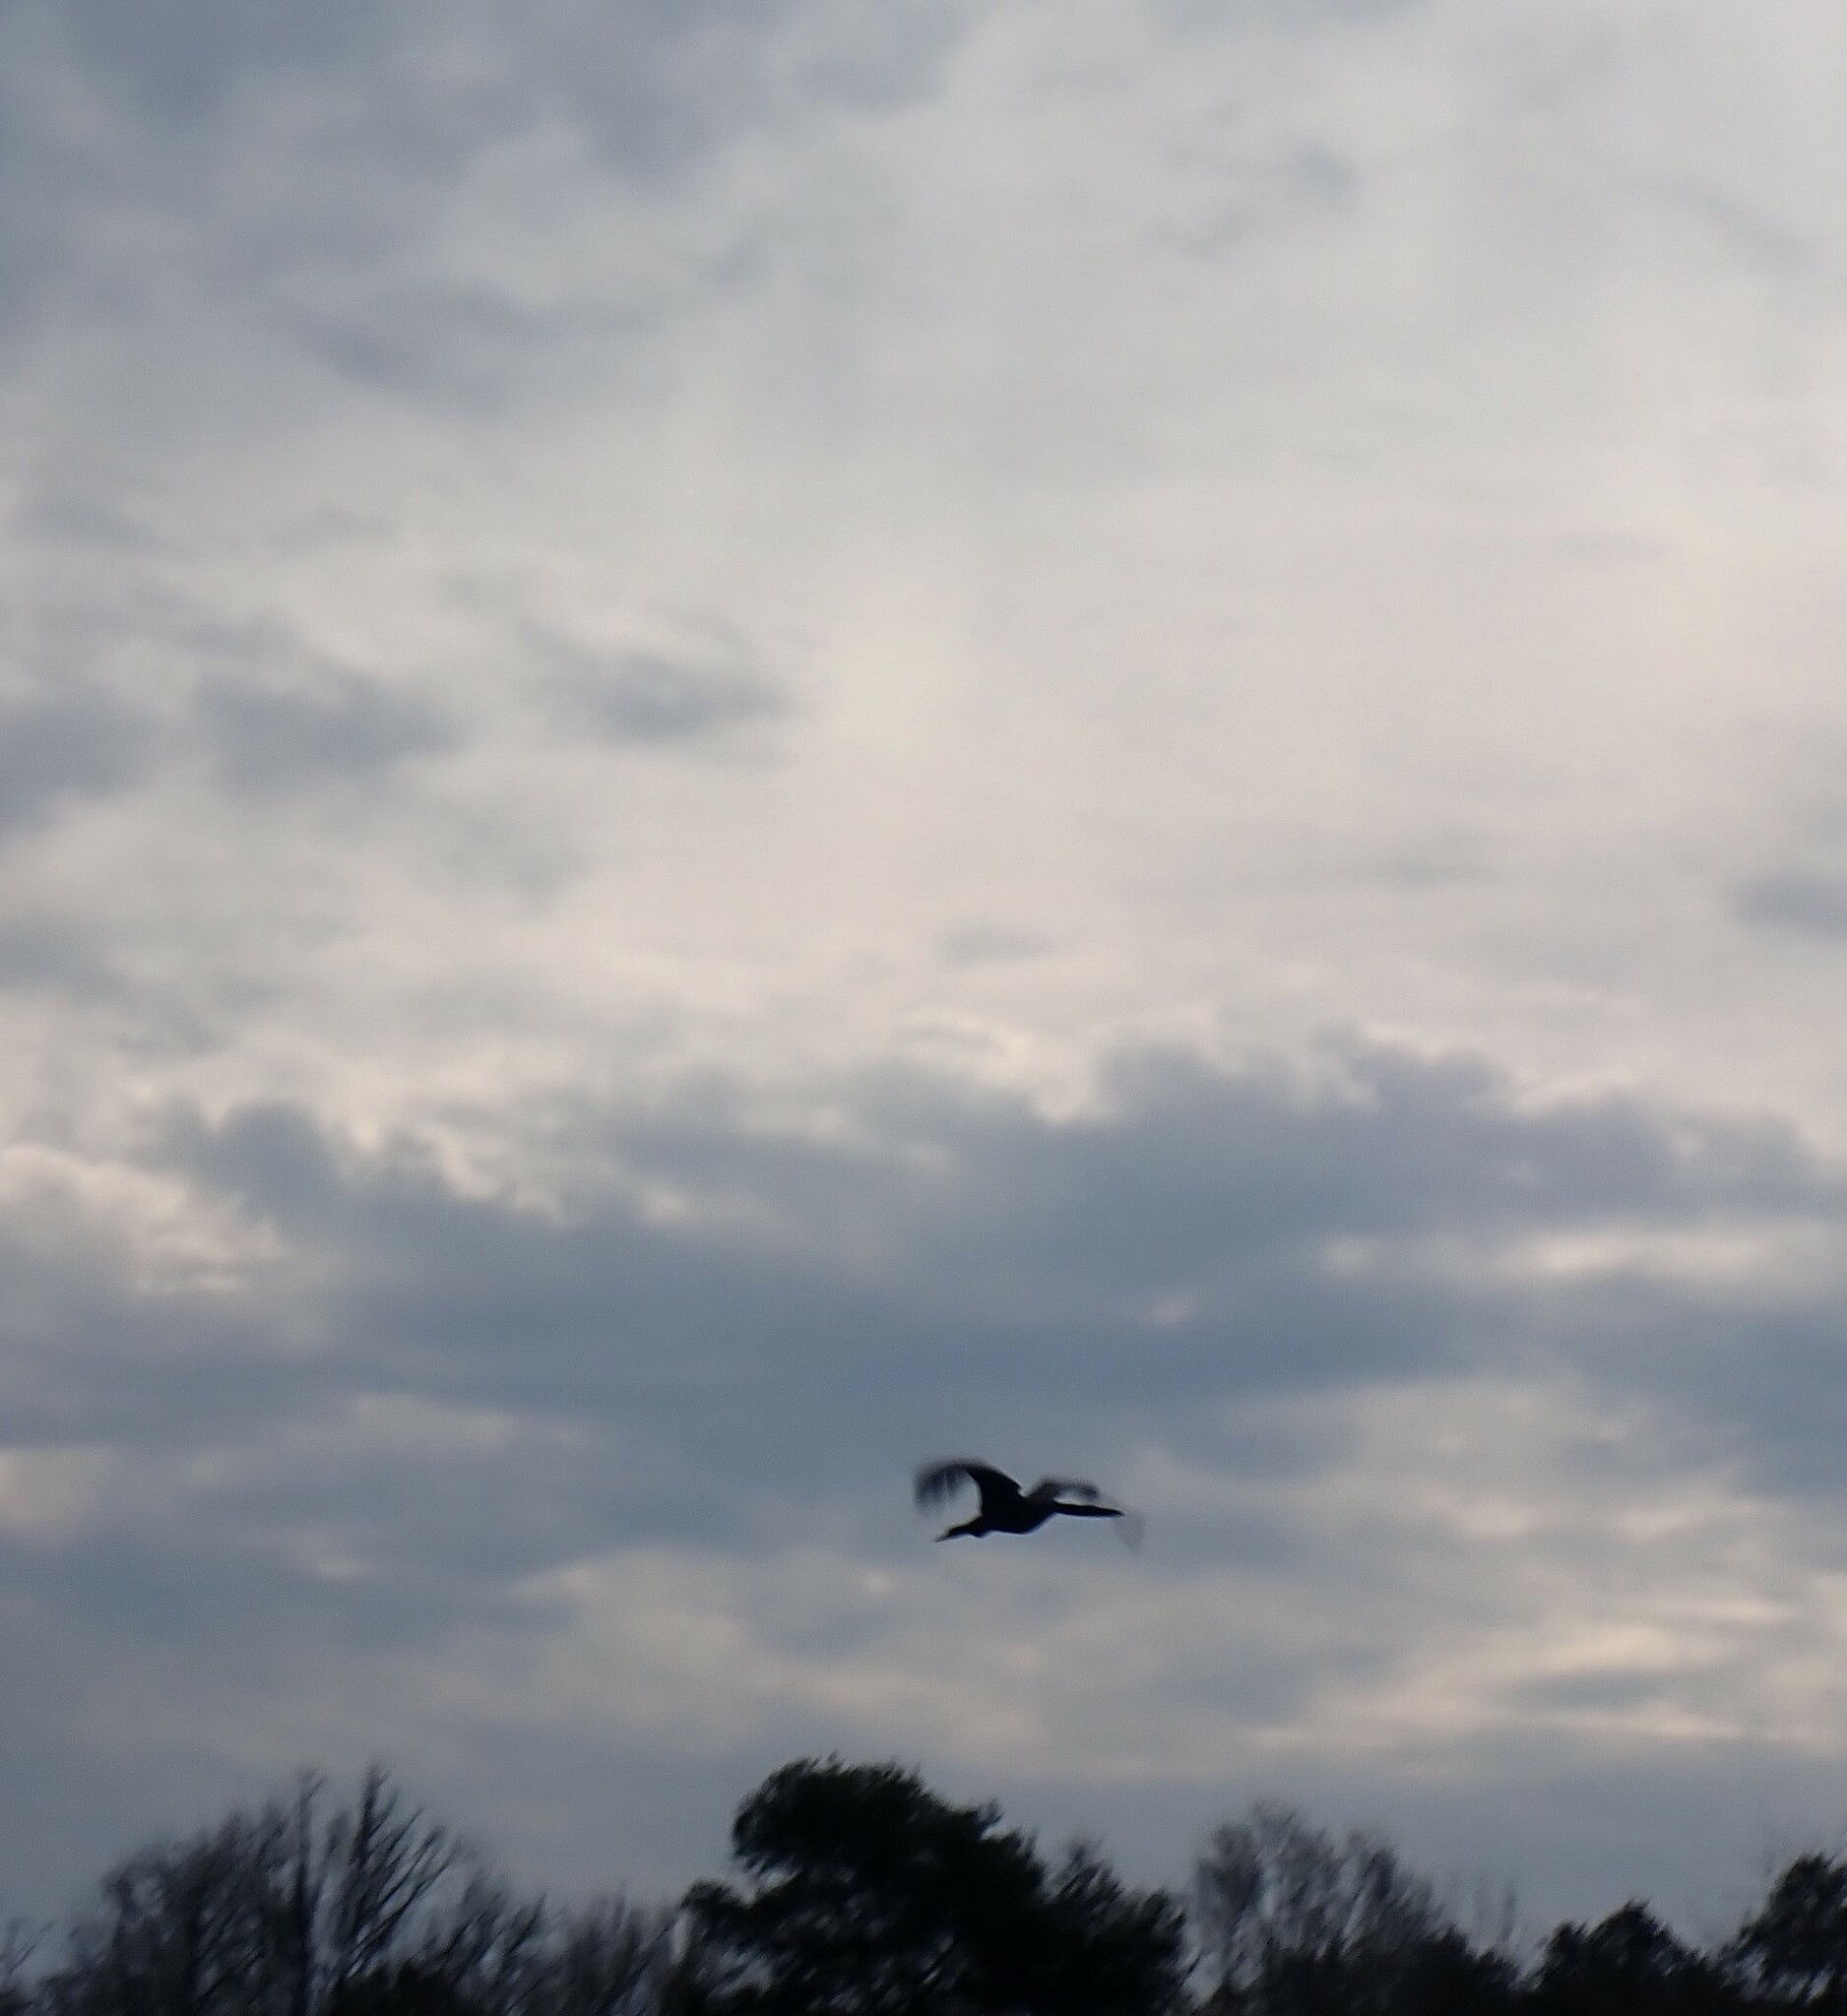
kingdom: Animalia
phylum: Chordata
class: Aves
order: Suliformes
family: Anhingidae
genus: Anhinga
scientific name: Anhinga anhinga
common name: Anhinga
